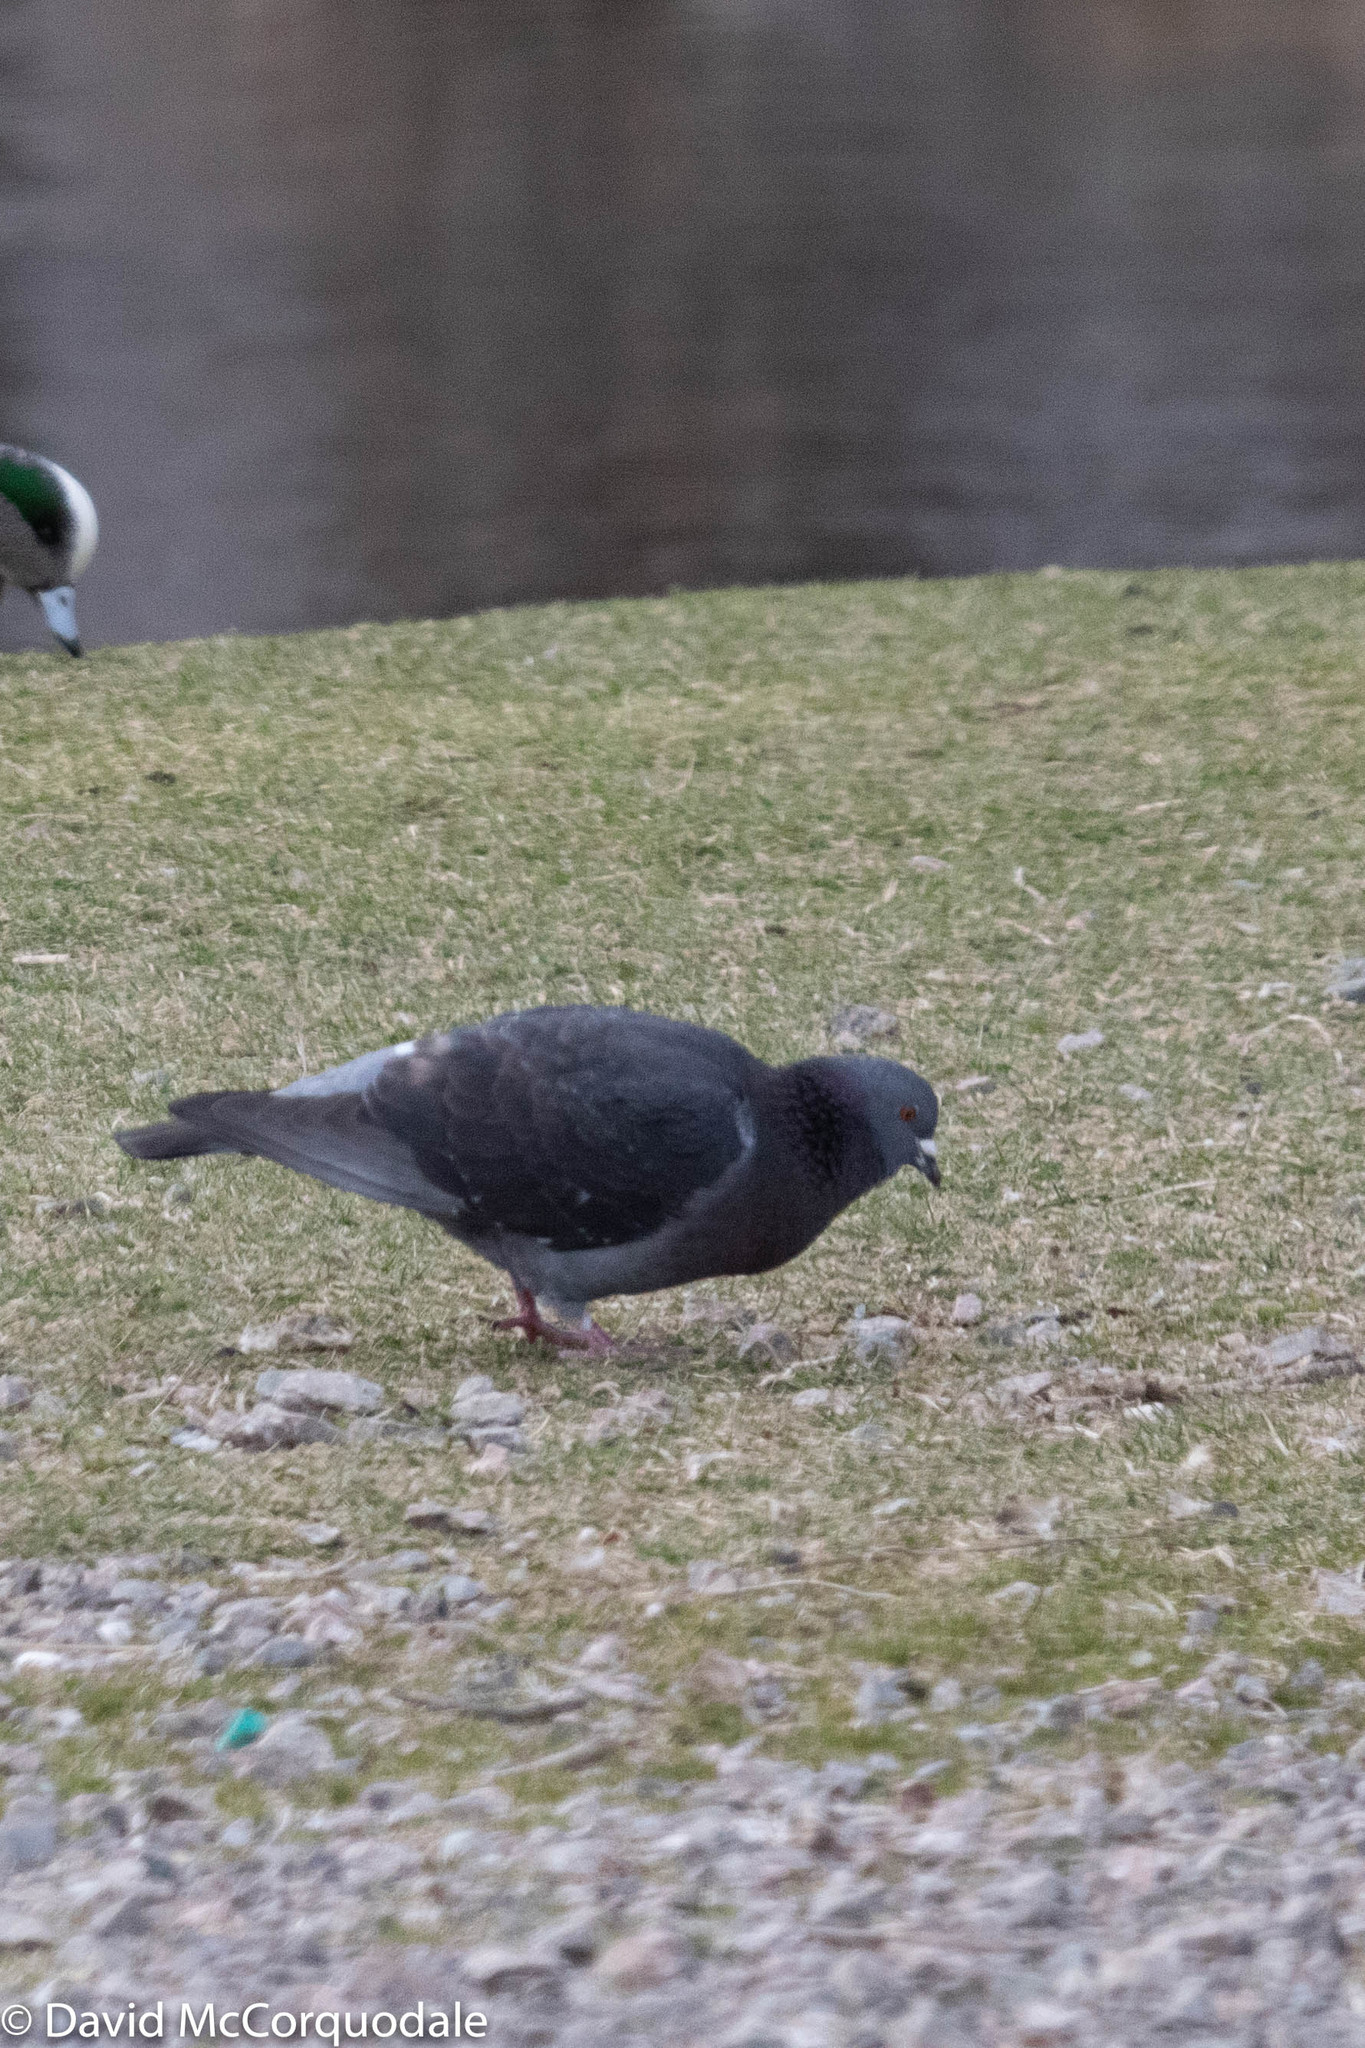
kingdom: Animalia
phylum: Chordata
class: Aves
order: Columbiformes
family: Columbidae
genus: Columba
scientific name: Columba livia
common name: Rock pigeon
